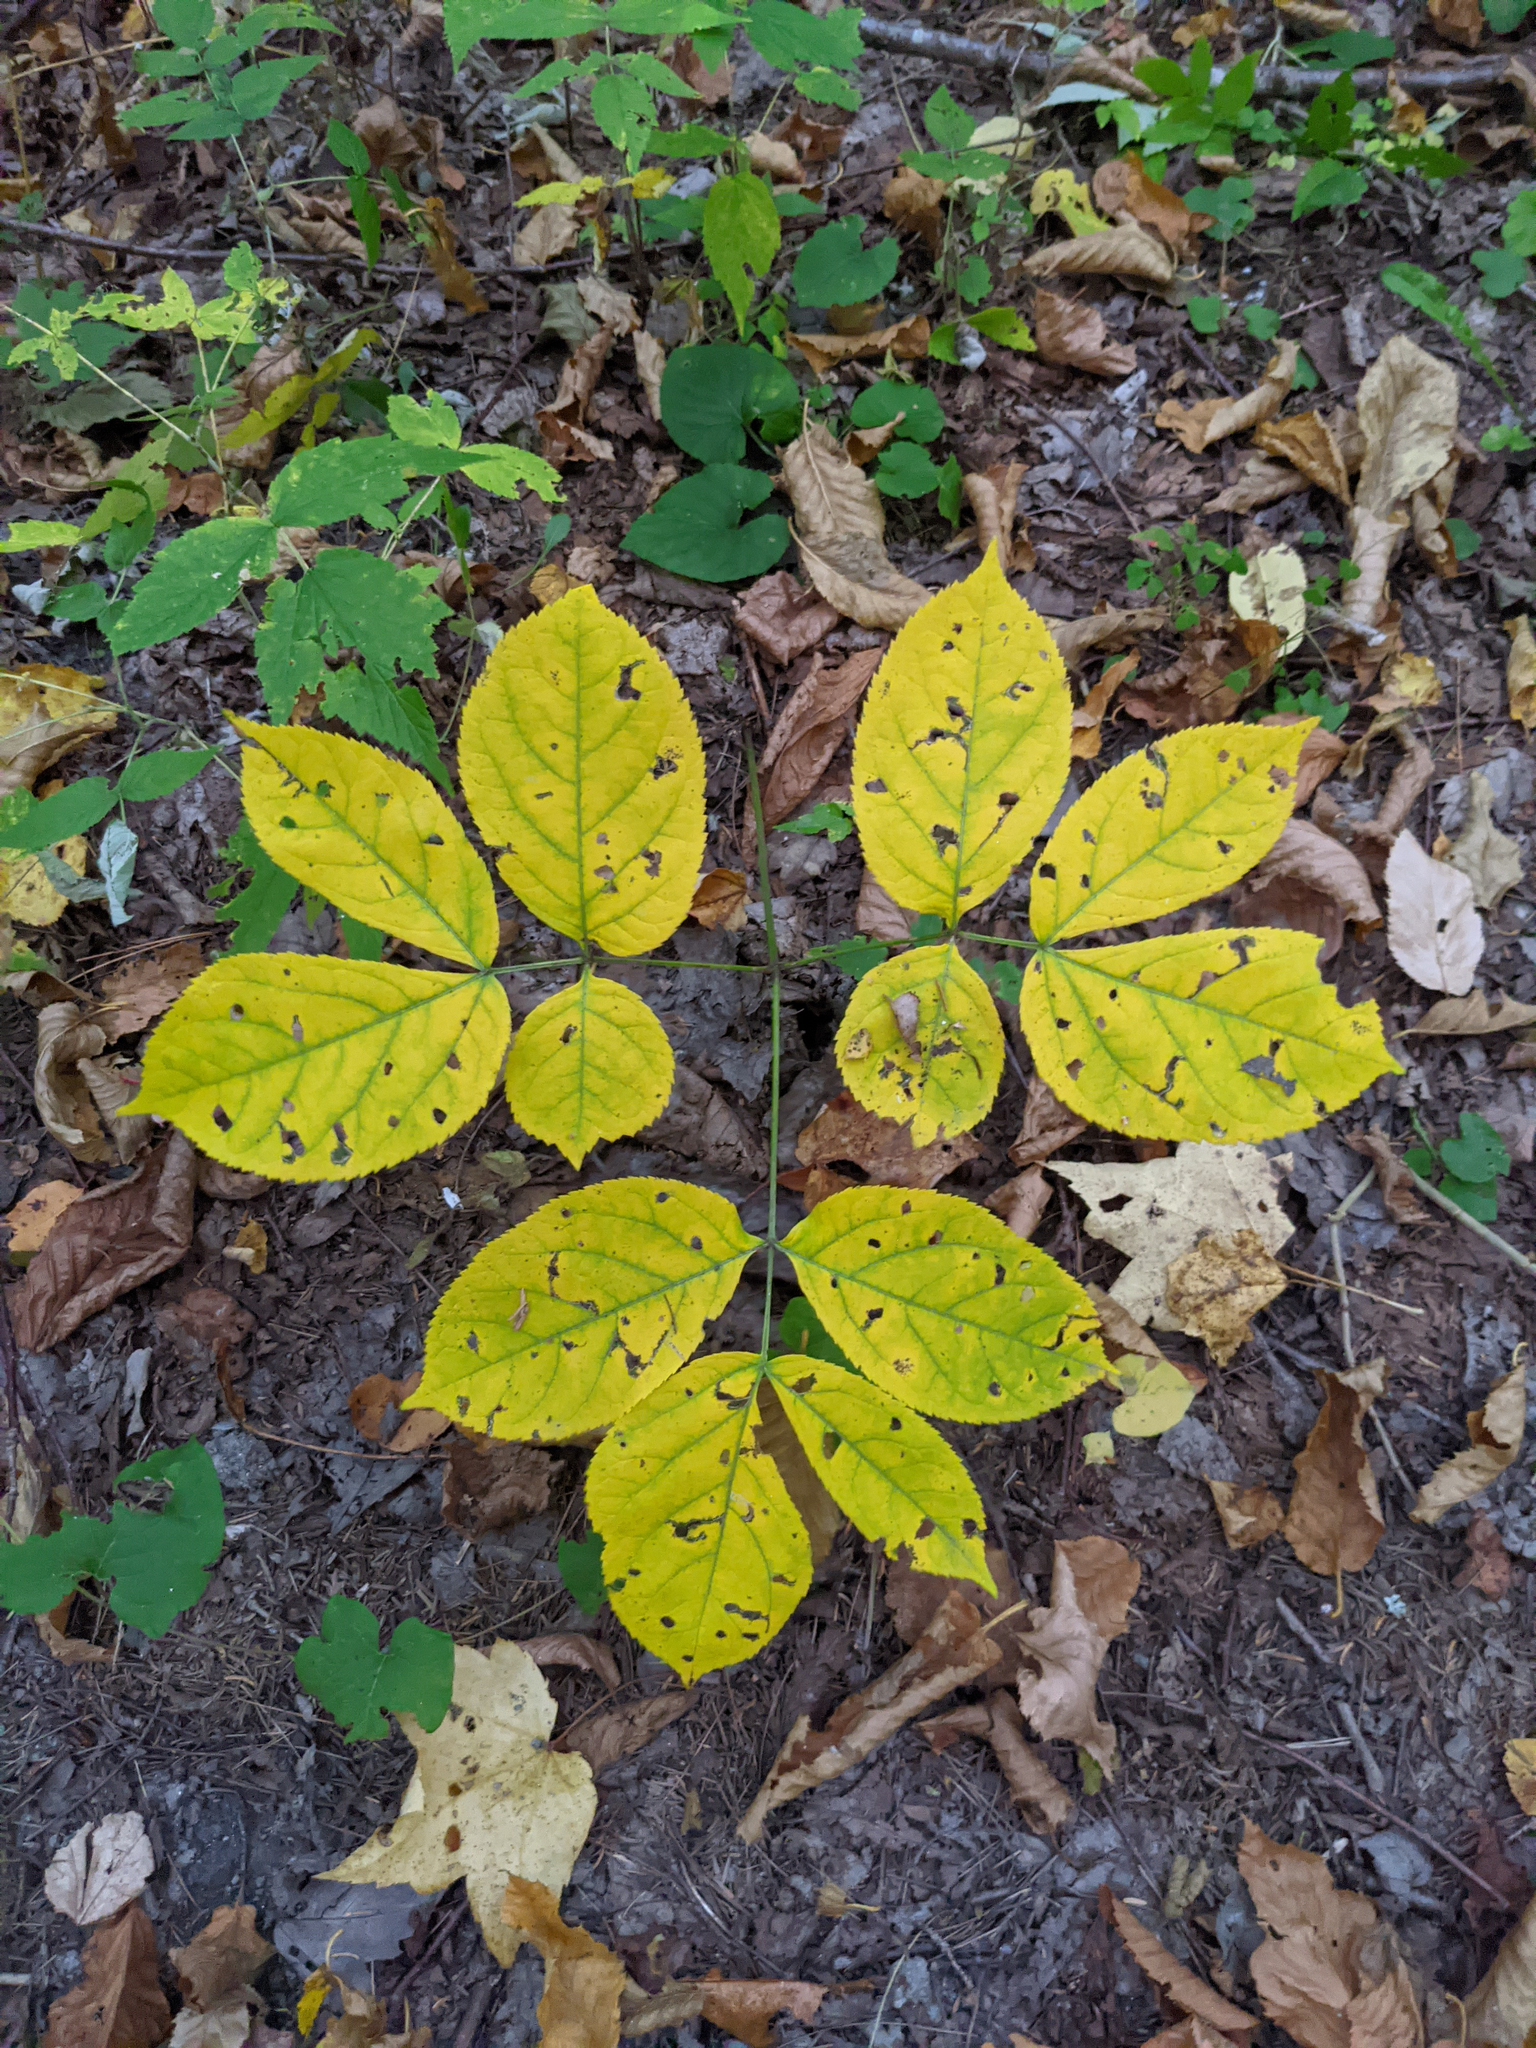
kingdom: Plantae
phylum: Tracheophyta
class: Magnoliopsida
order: Apiales
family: Araliaceae
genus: Aralia
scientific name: Aralia nudicaulis
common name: Wild sarsaparilla
